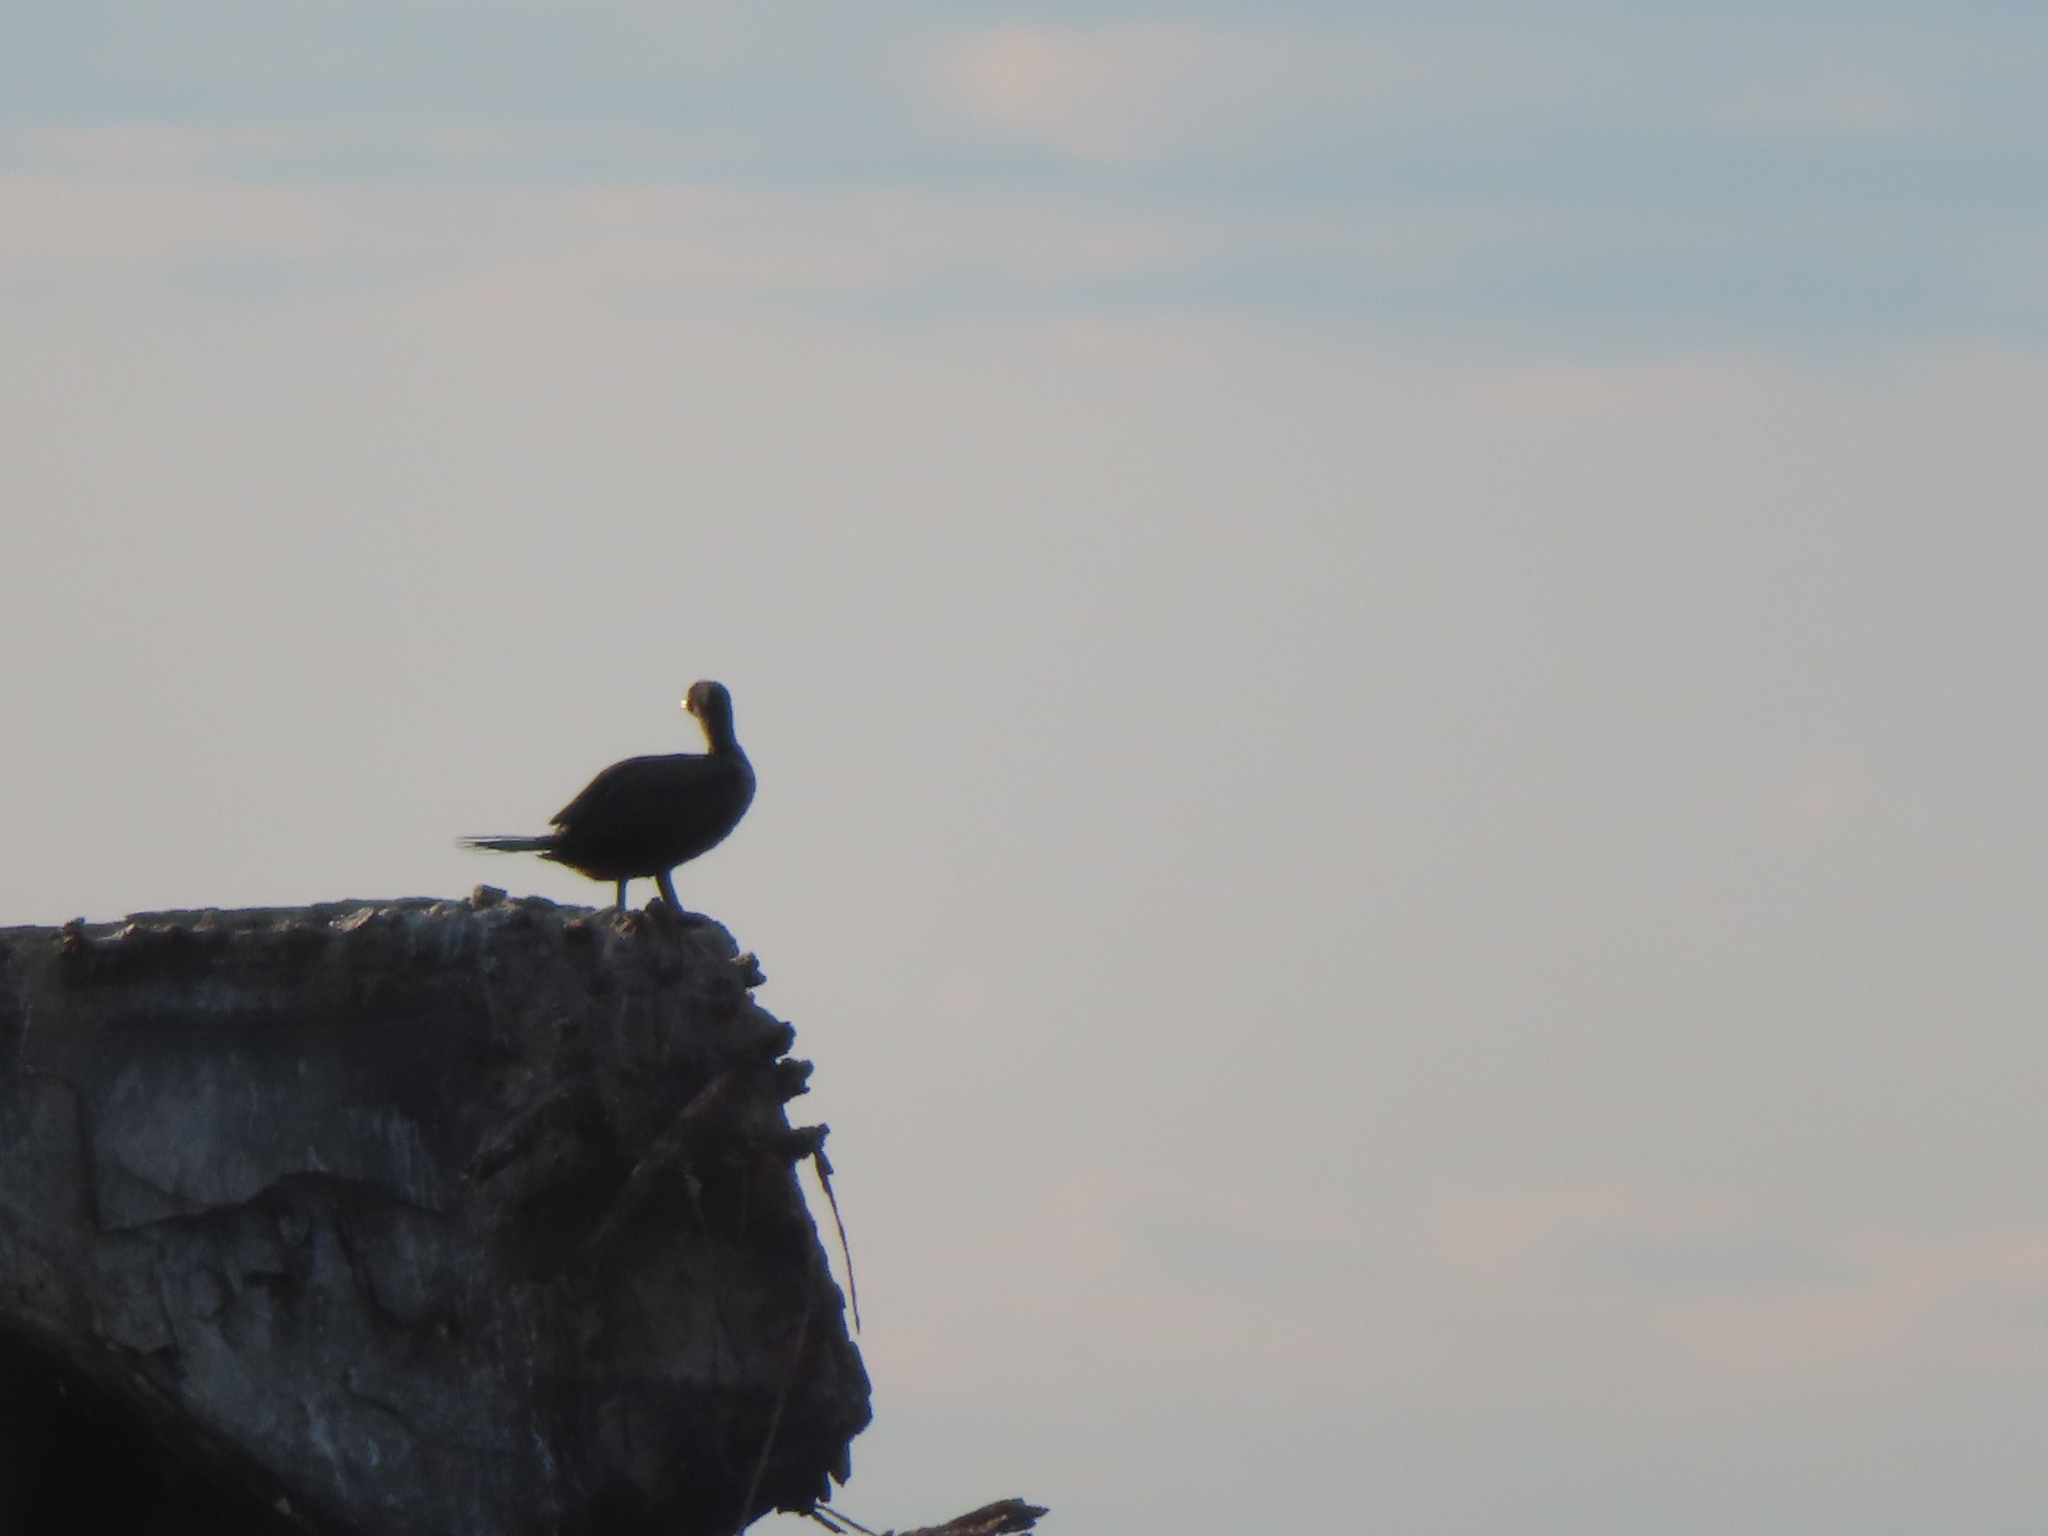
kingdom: Animalia
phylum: Chordata
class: Aves
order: Suliformes
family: Phalacrocoracidae
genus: Phalacrocorax
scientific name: Phalacrocorax auritus
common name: Double-crested cormorant
